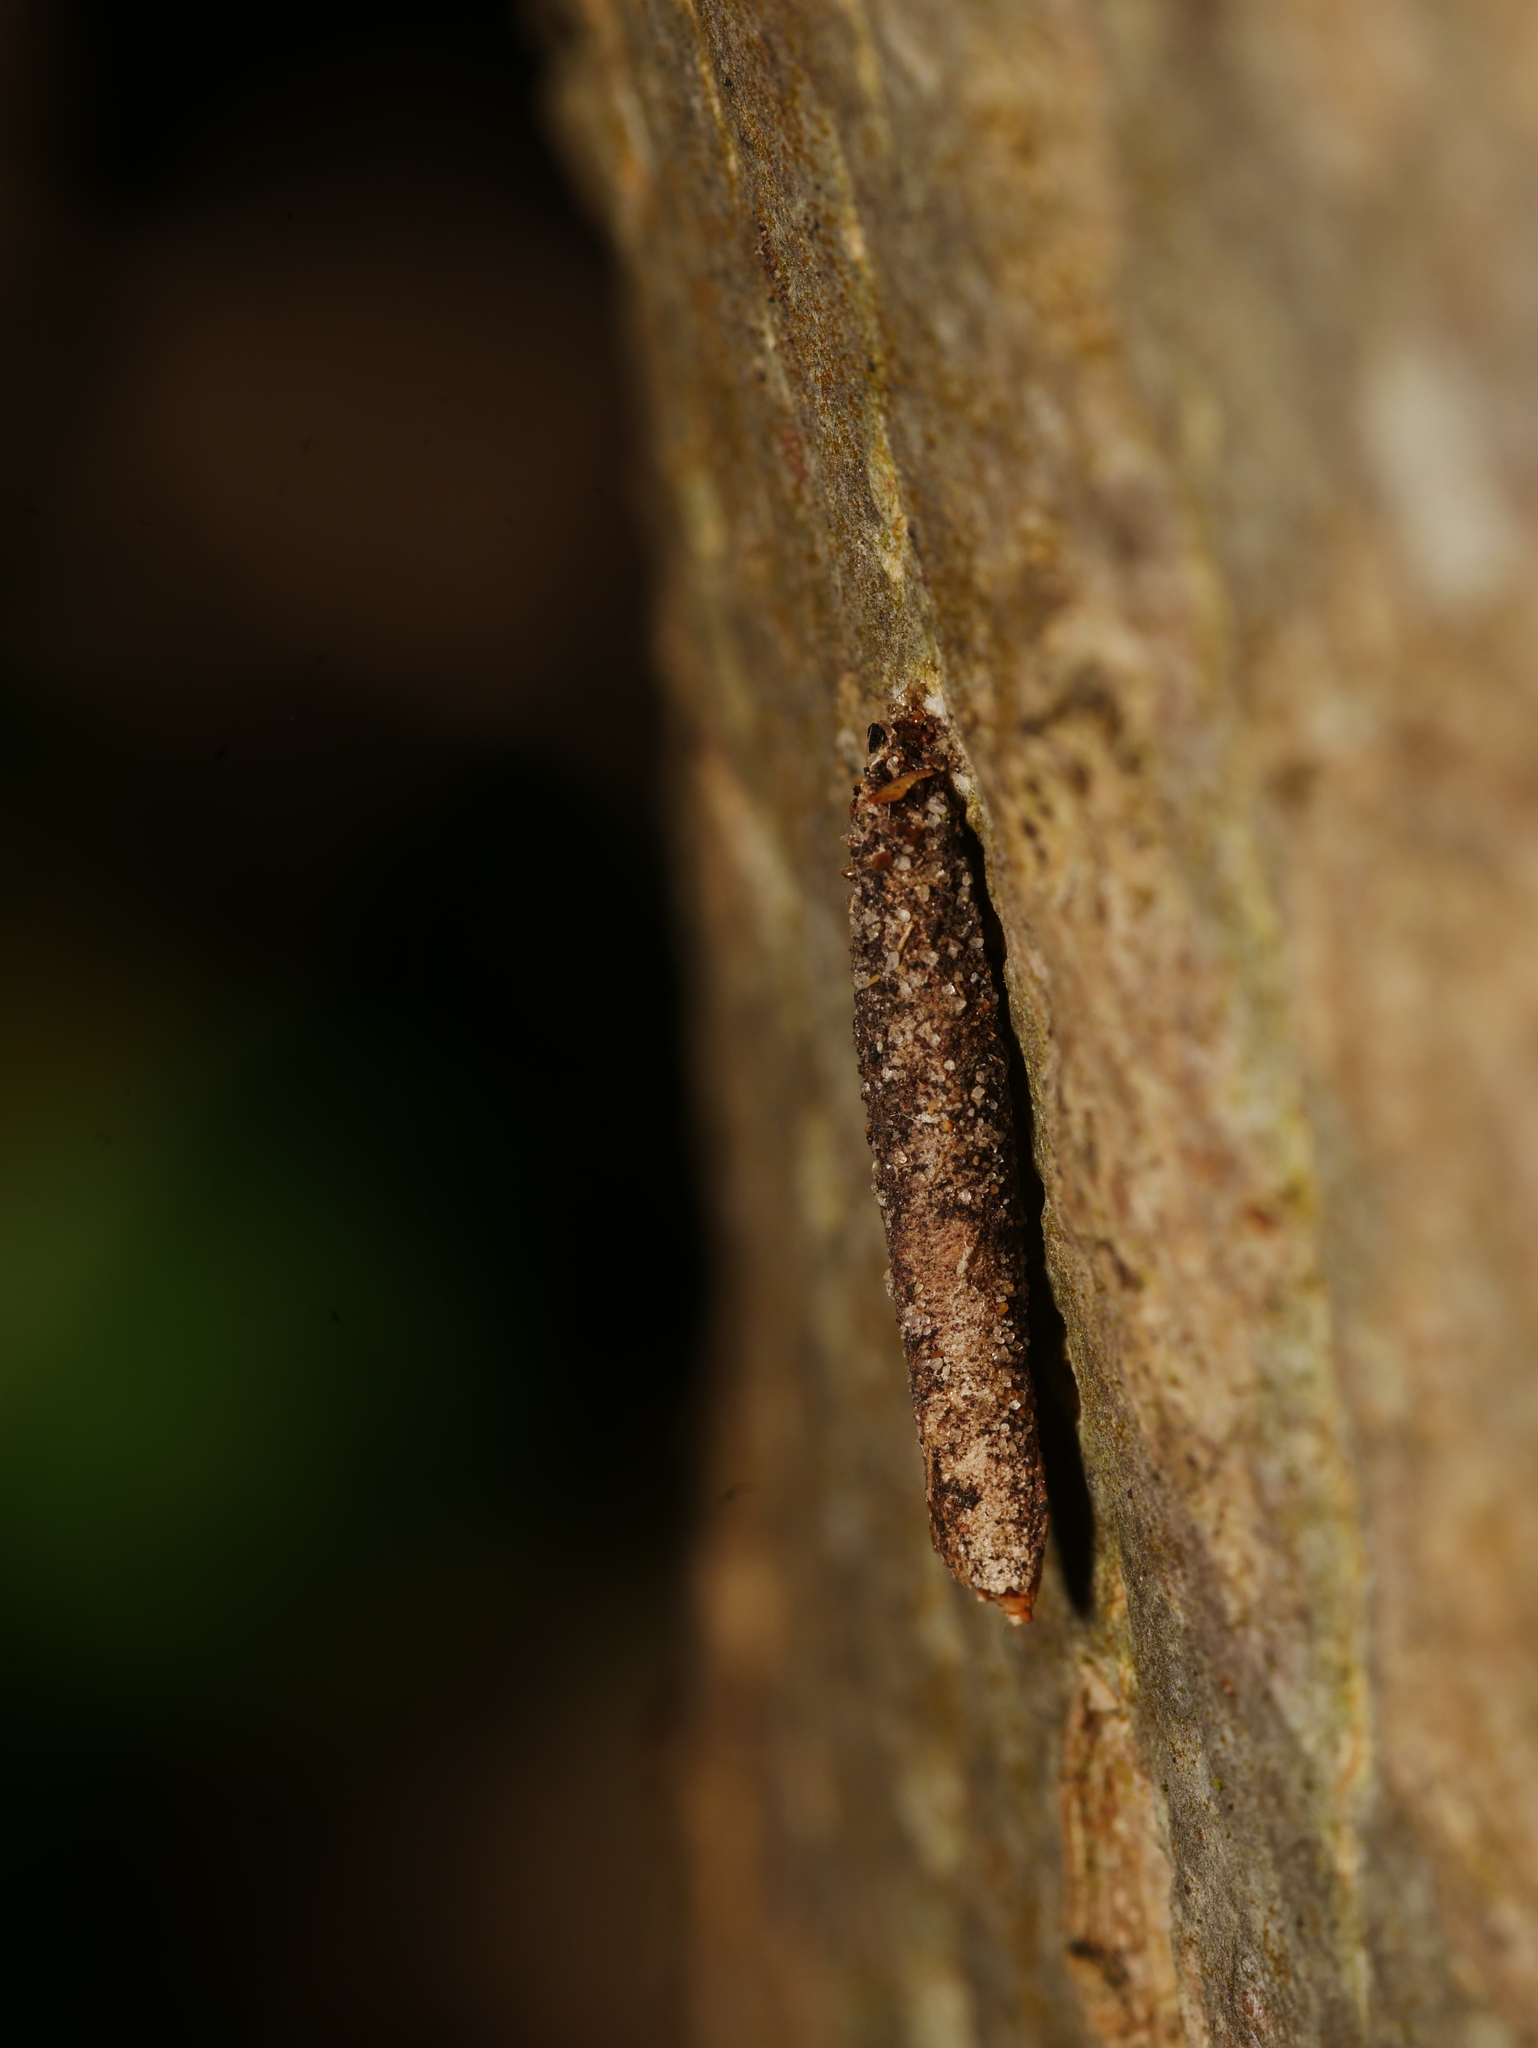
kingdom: Animalia
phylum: Arthropoda
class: Insecta
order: Lepidoptera
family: Psychidae
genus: Taleporia
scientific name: Taleporia tubulosa
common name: Brown smoke
